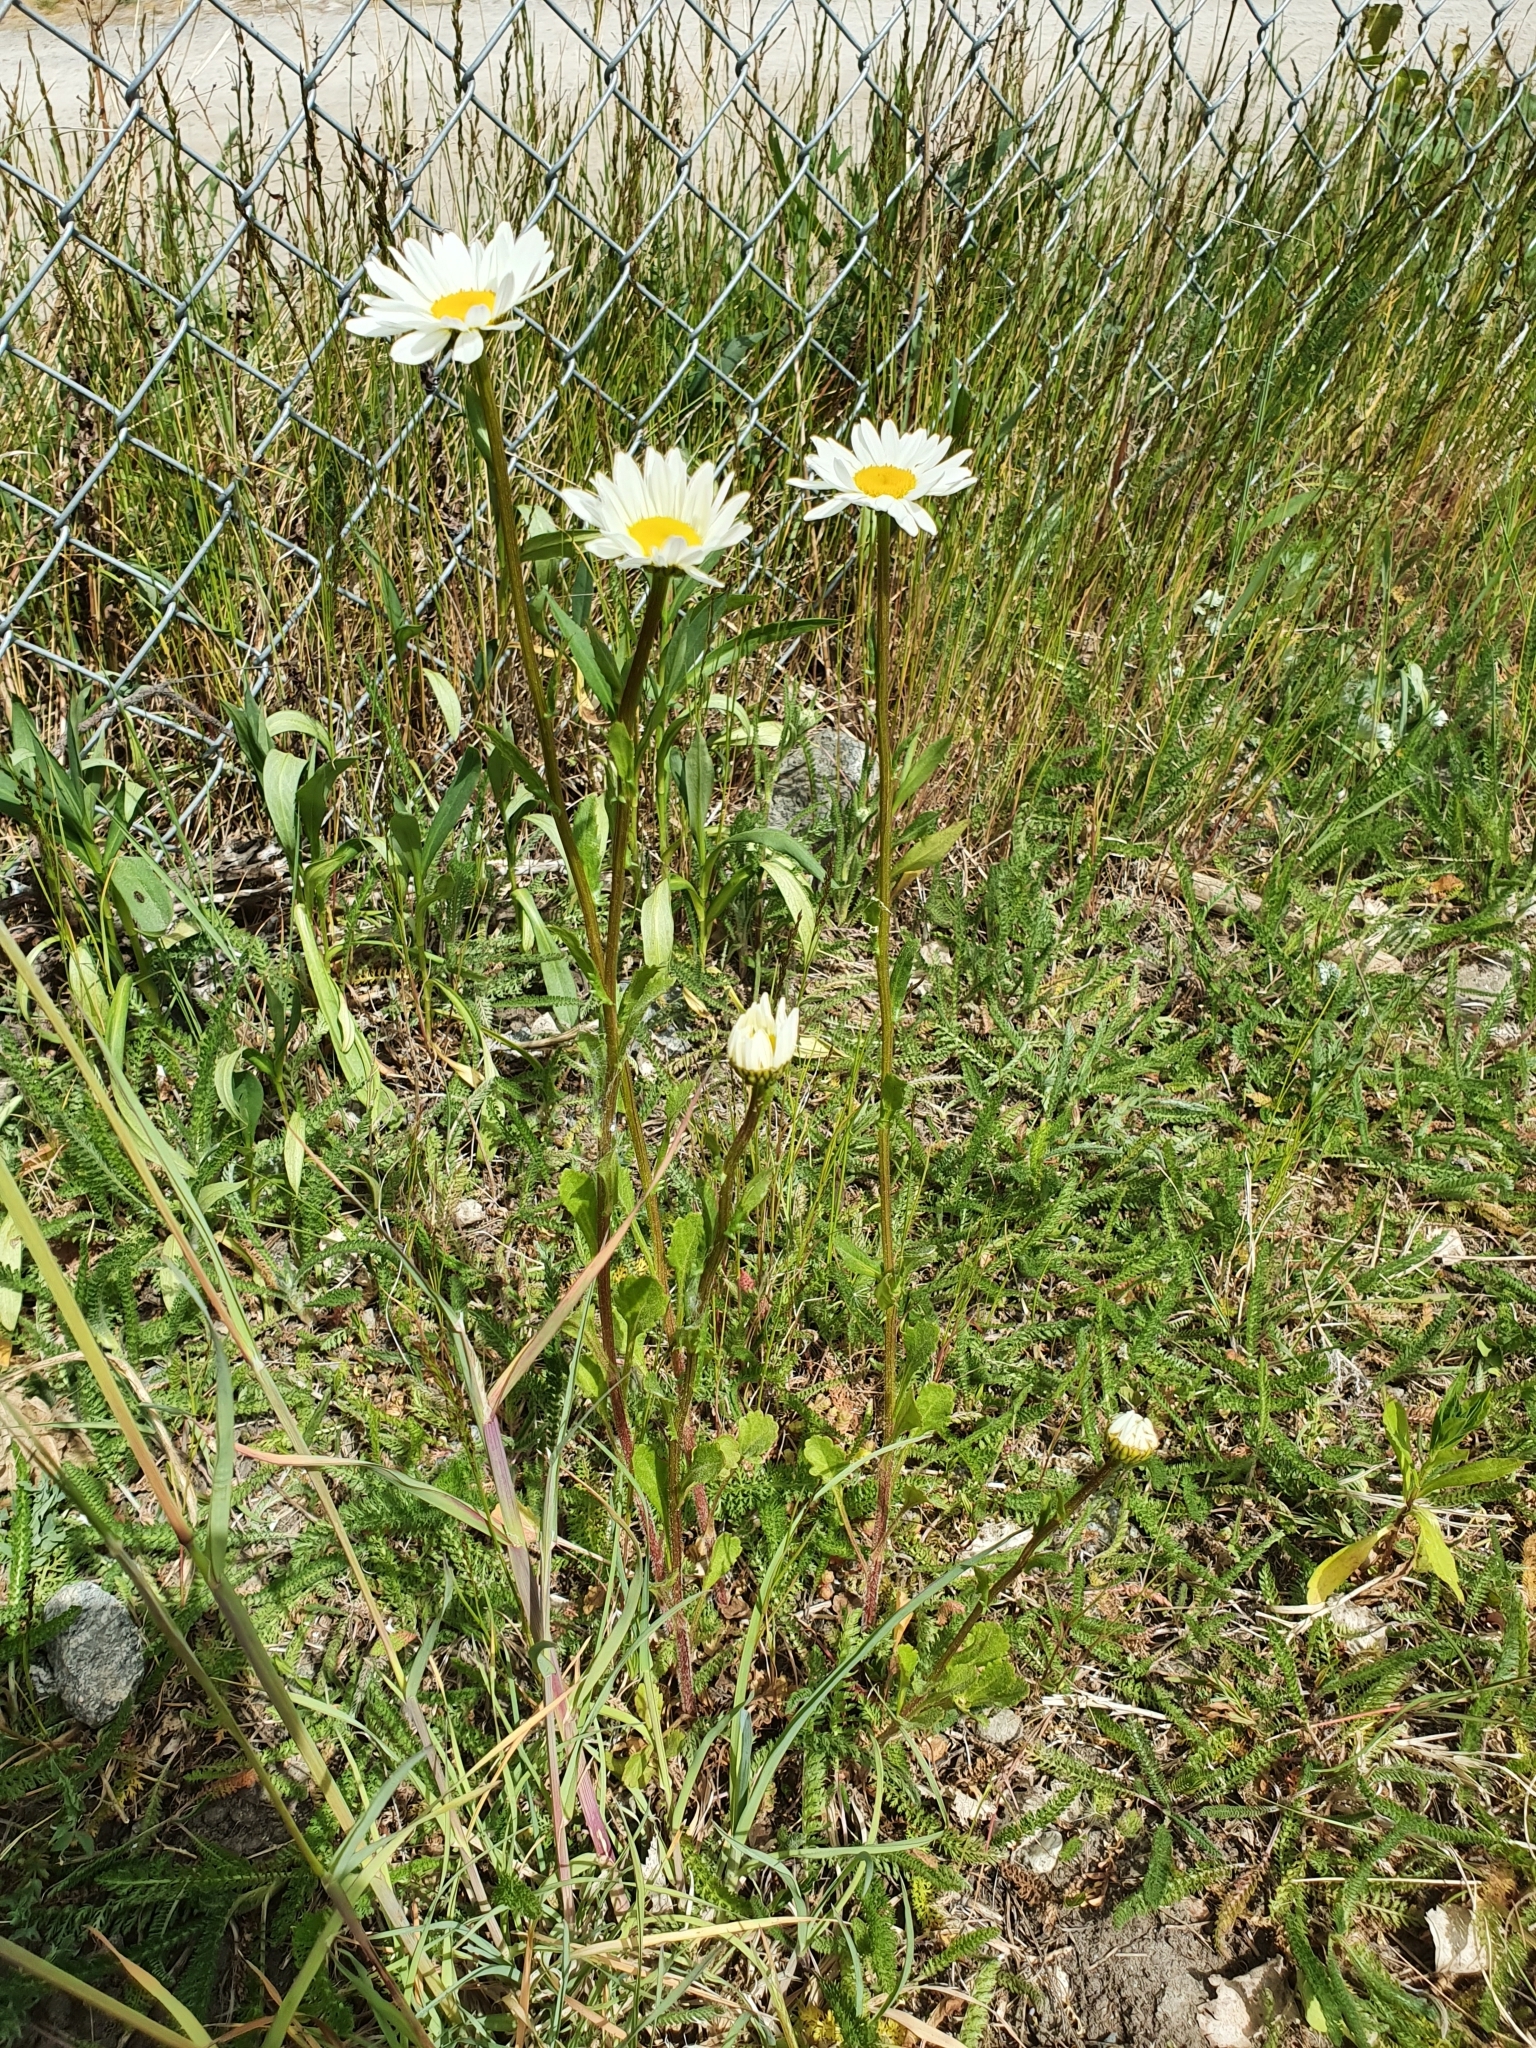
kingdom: Plantae
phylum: Tracheophyta
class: Magnoliopsida
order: Asterales
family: Asteraceae
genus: Leucanthemum
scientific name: Leucanthemum vulgare
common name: Oxeye daisy
